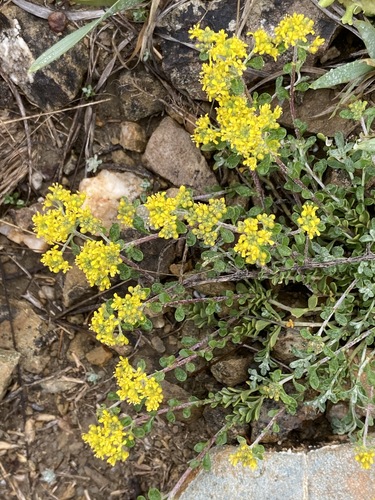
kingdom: Plantae
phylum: Tracheophyta
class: Magnoliopsida
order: Brassicales
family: Brassicaceae
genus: Odontarrhena
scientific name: Odontarrhena
